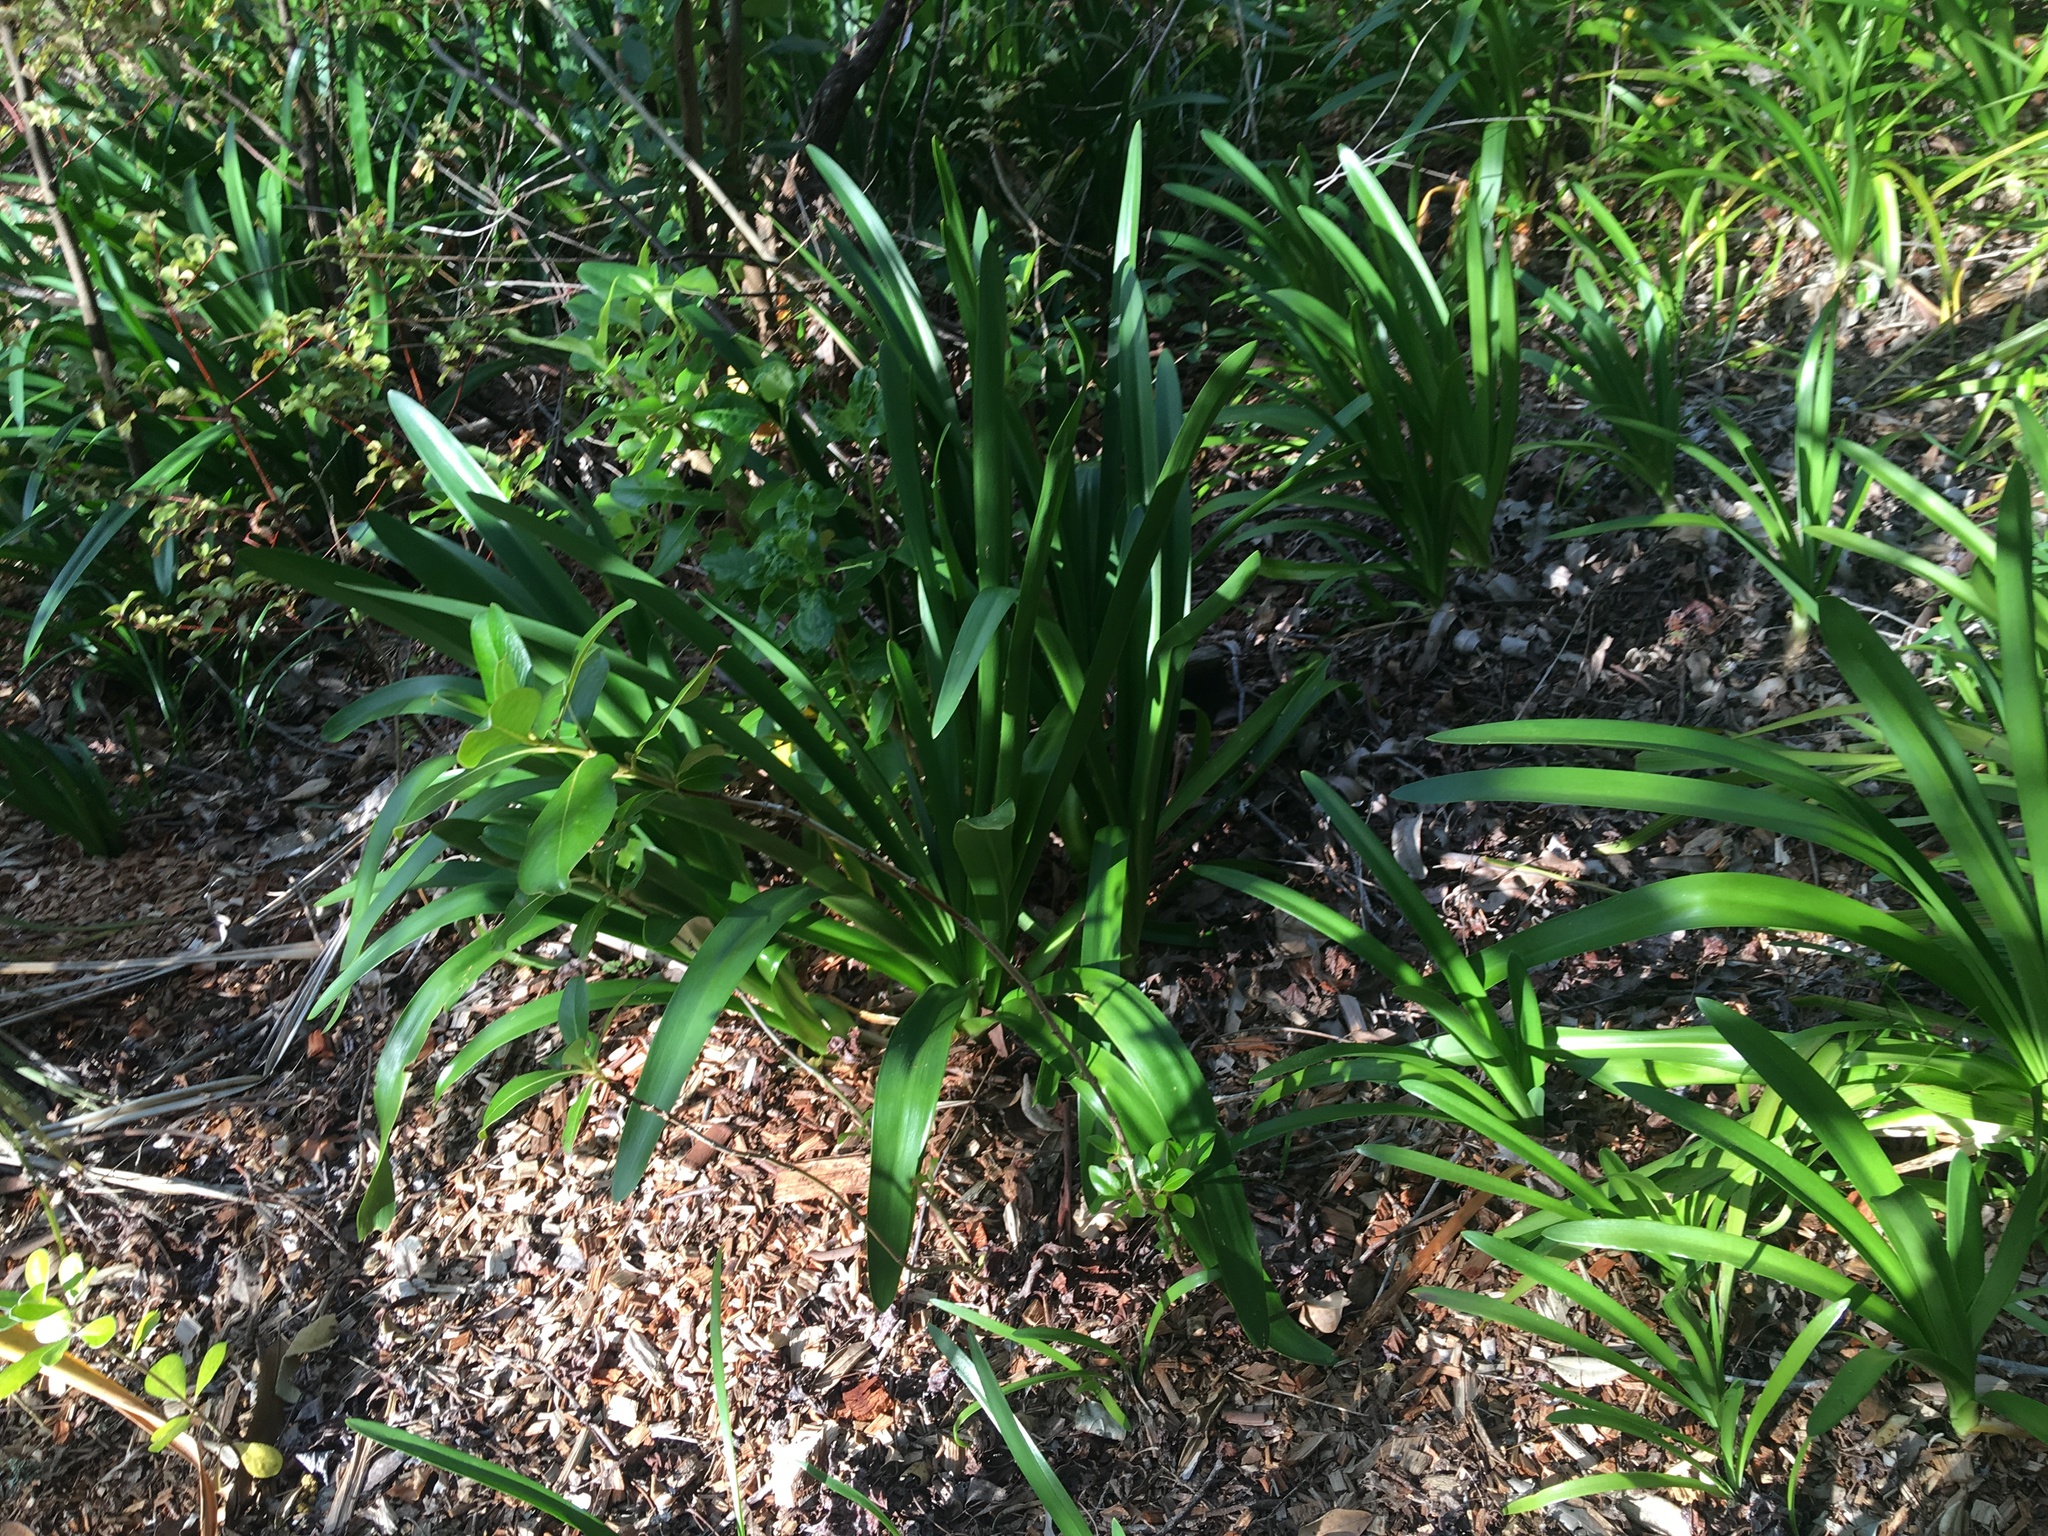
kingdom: Plantae
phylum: Tracheophyta
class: Liliopsida
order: Asparagales
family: Amaryllidaceae
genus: Agapanthus
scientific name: Agapanthus praecox
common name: African-lily
